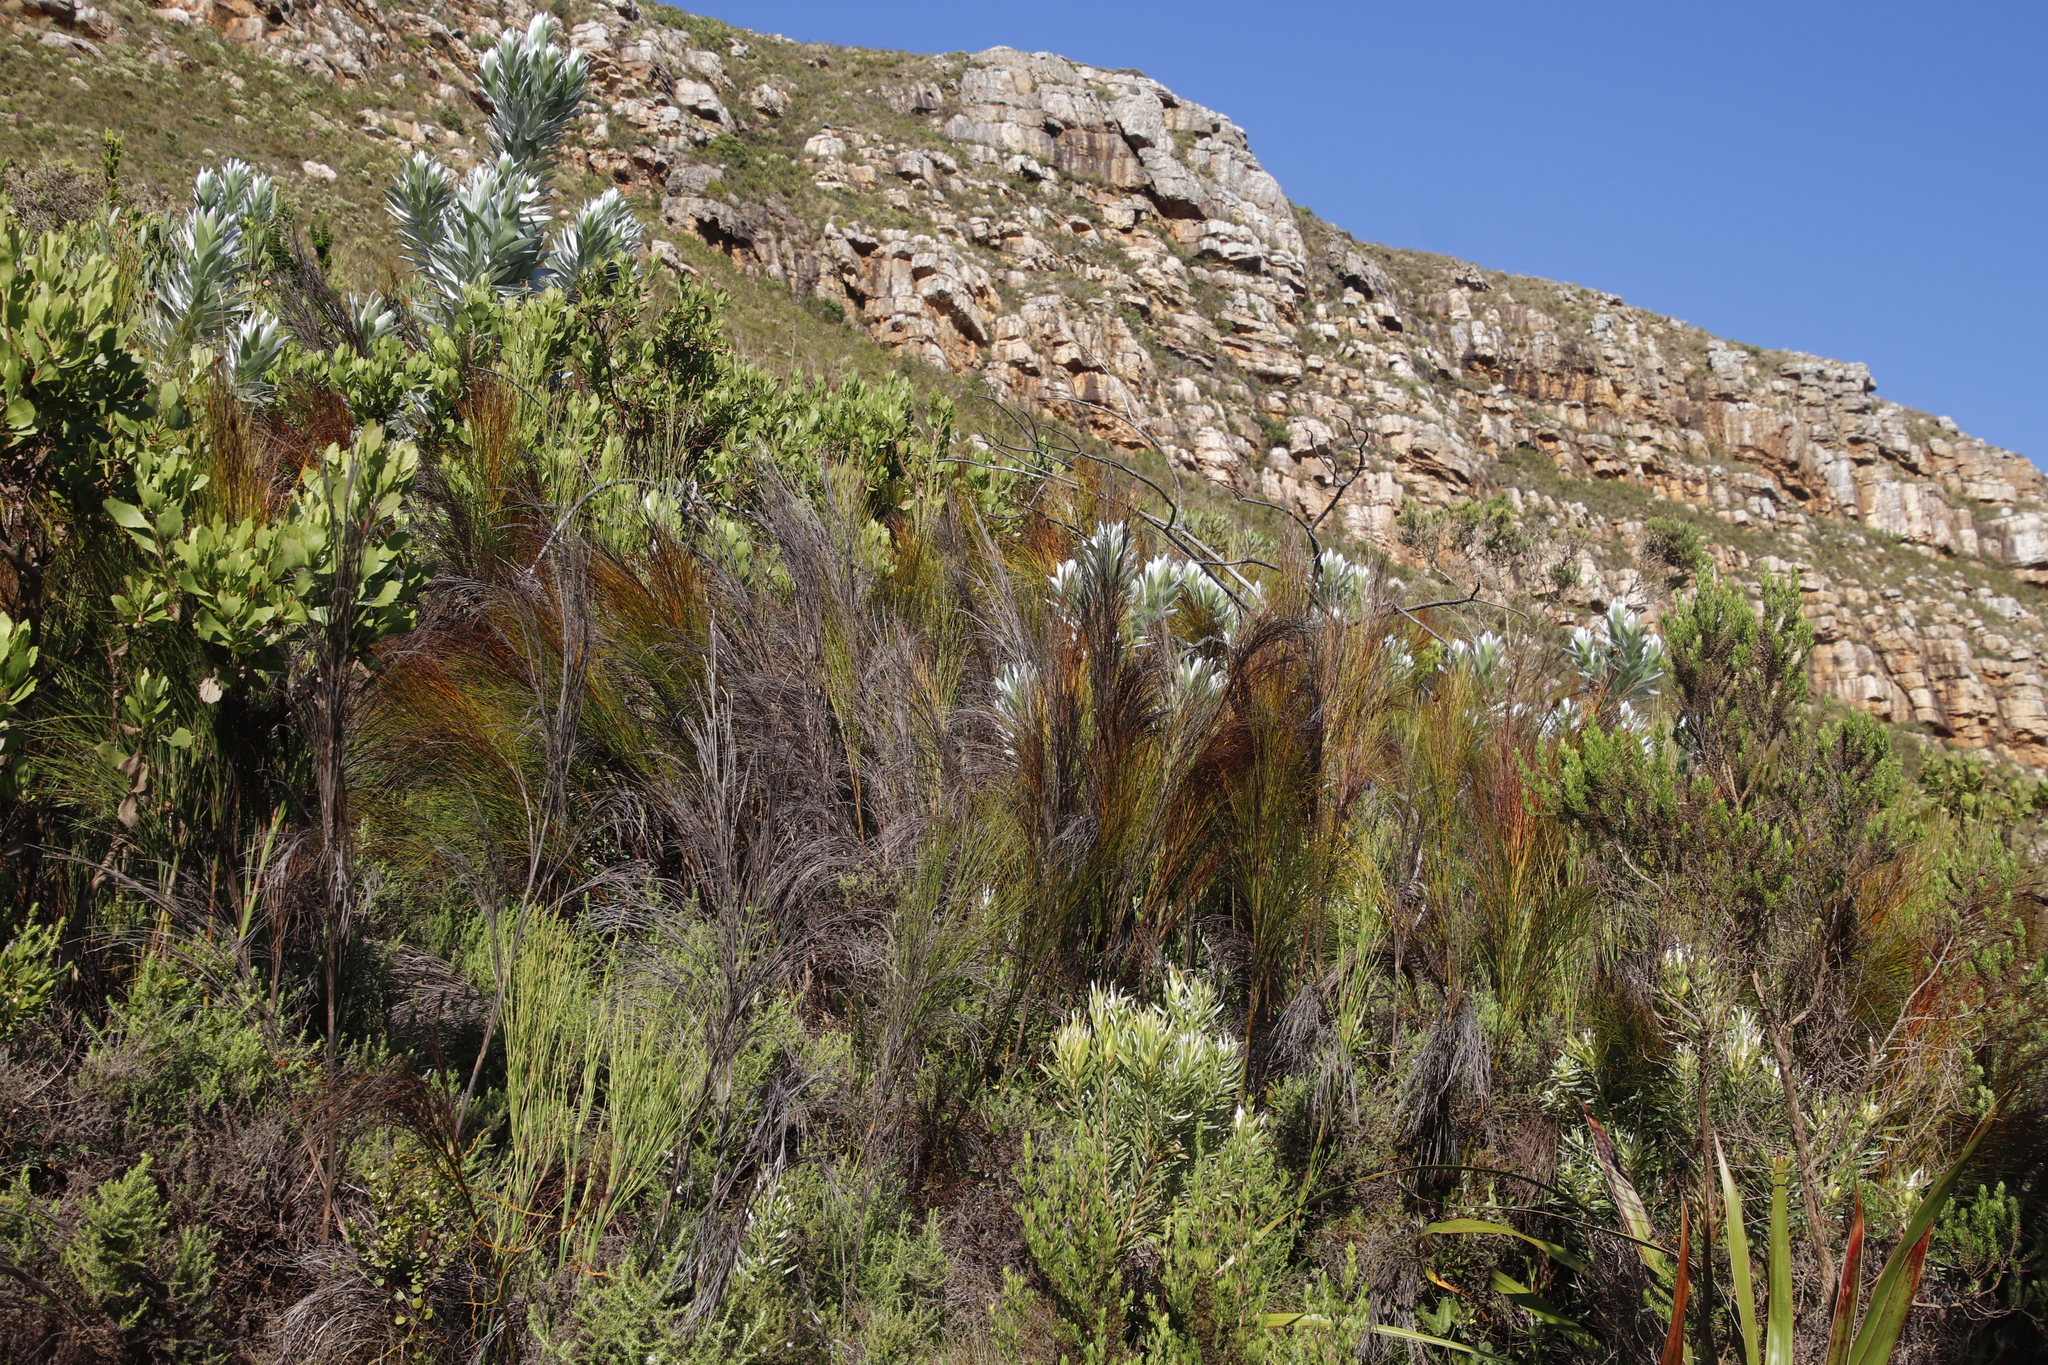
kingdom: Plantae
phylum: Tracheophyta
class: Magnoliopsida
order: Proteales
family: Proteaceae
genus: Leucadendron
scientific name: Leucadendron xanthoconus
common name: Sickle-leaf conebush
